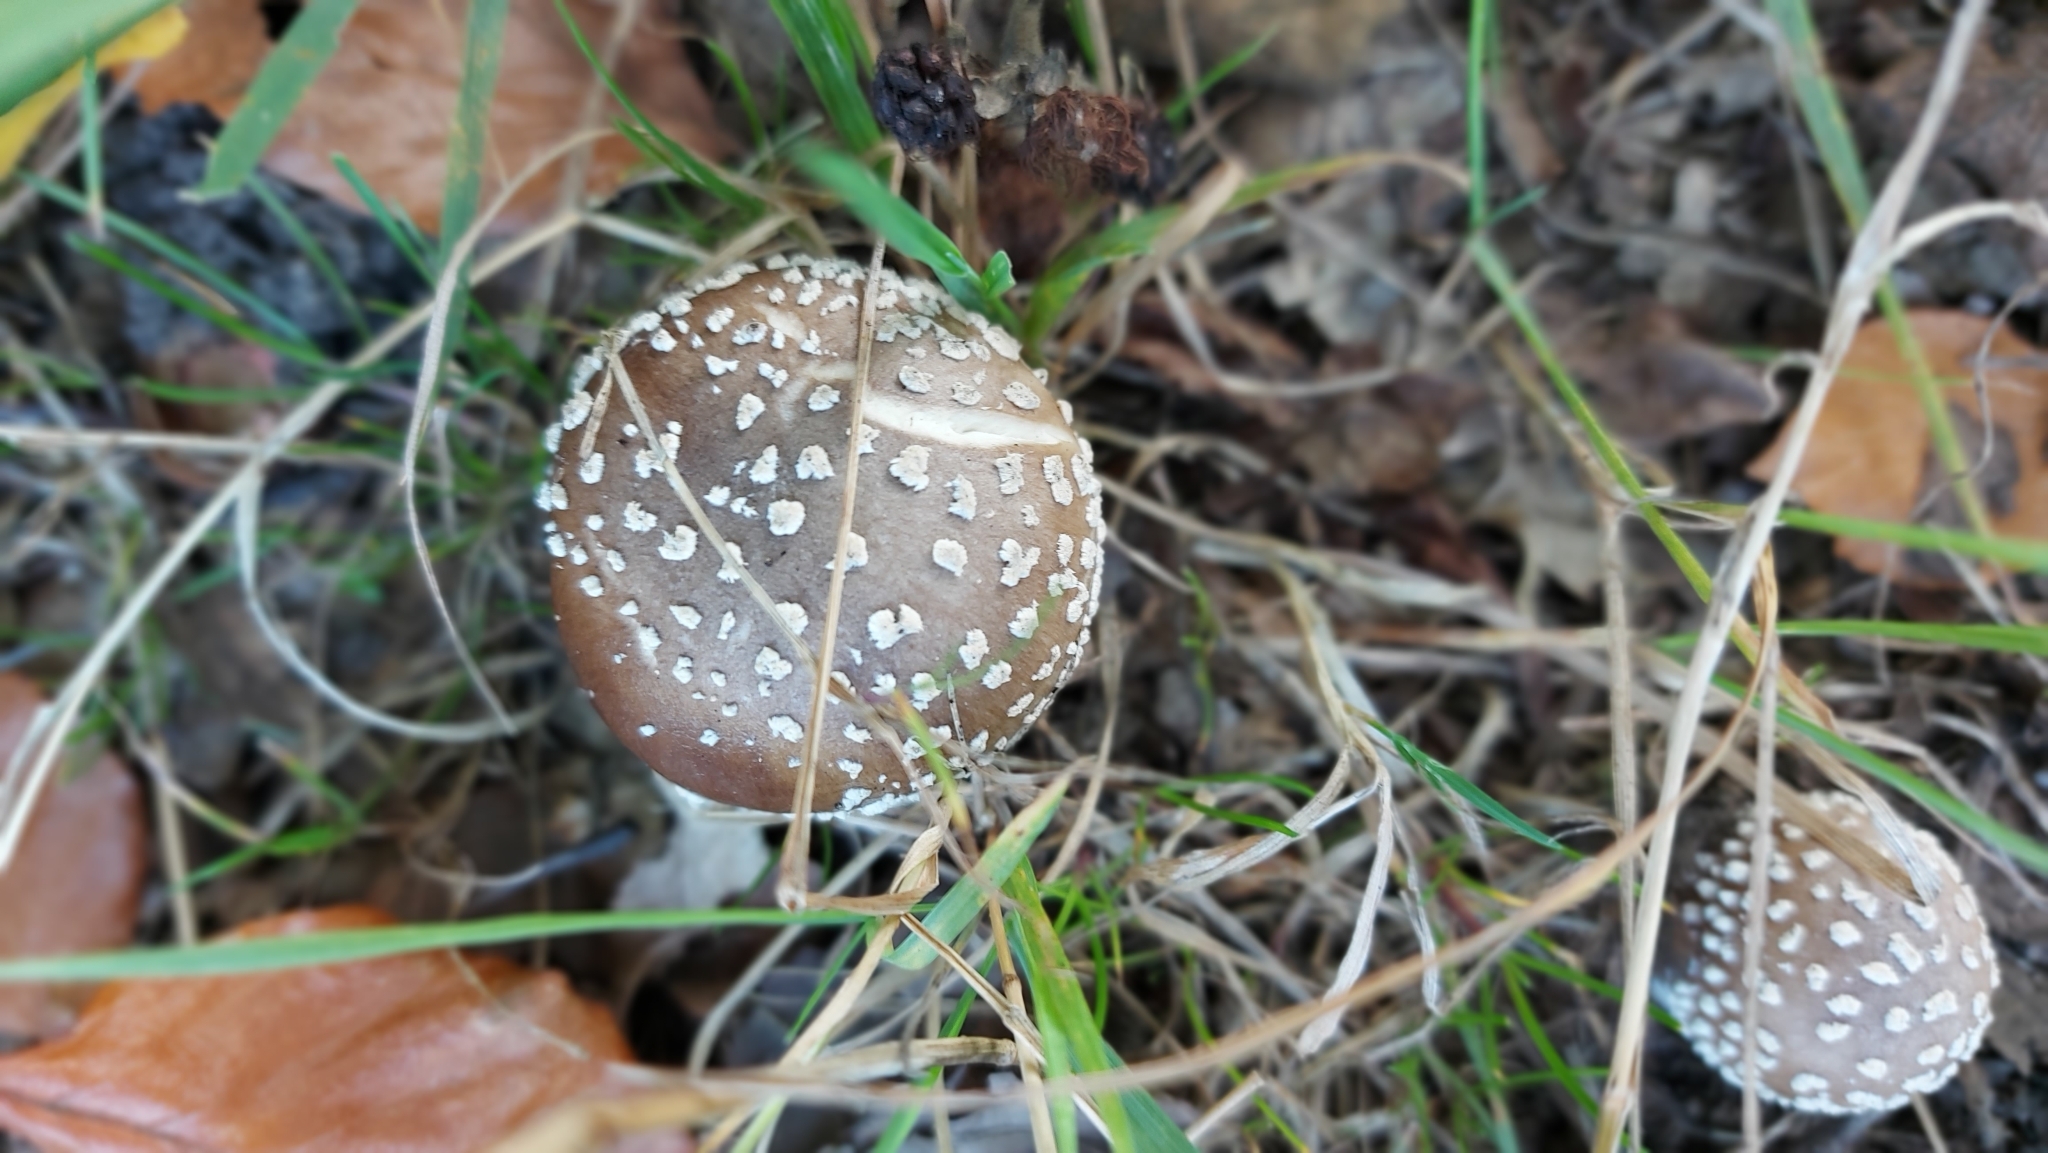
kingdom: Fungi
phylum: Basidiomycota
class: Agaricomycetes
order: Agaricales
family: Amanitaceae
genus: Amanita
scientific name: Amanita pantherina
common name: Panthercap
